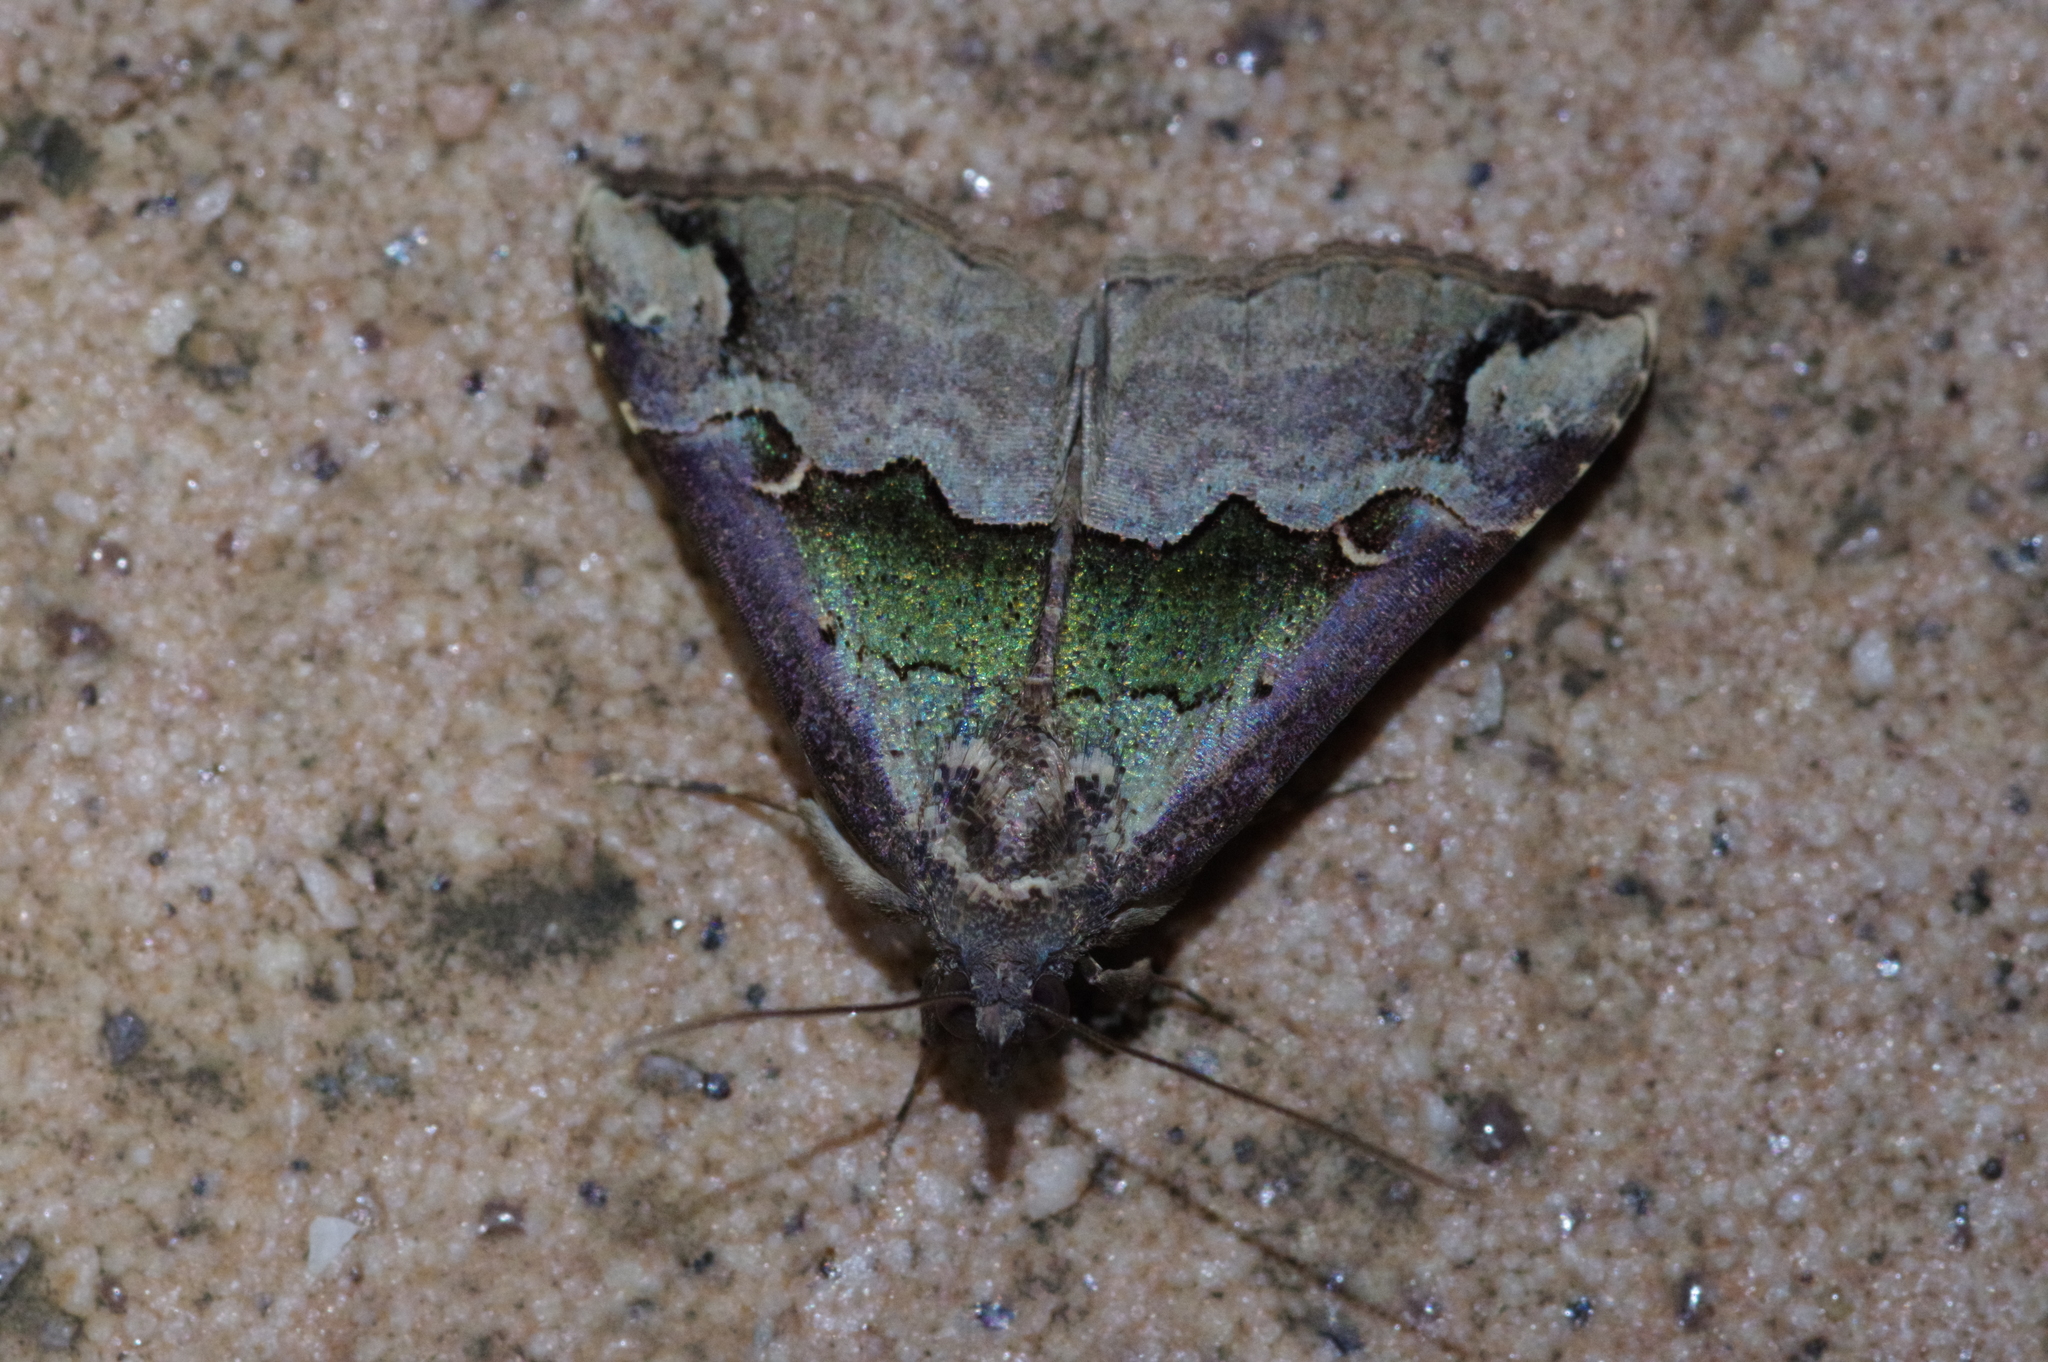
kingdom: Animalia
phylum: Arthropoda
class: Insecta
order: Lepidoptera
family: Erebidae
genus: Hypena
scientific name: Hypena gonospilalis
